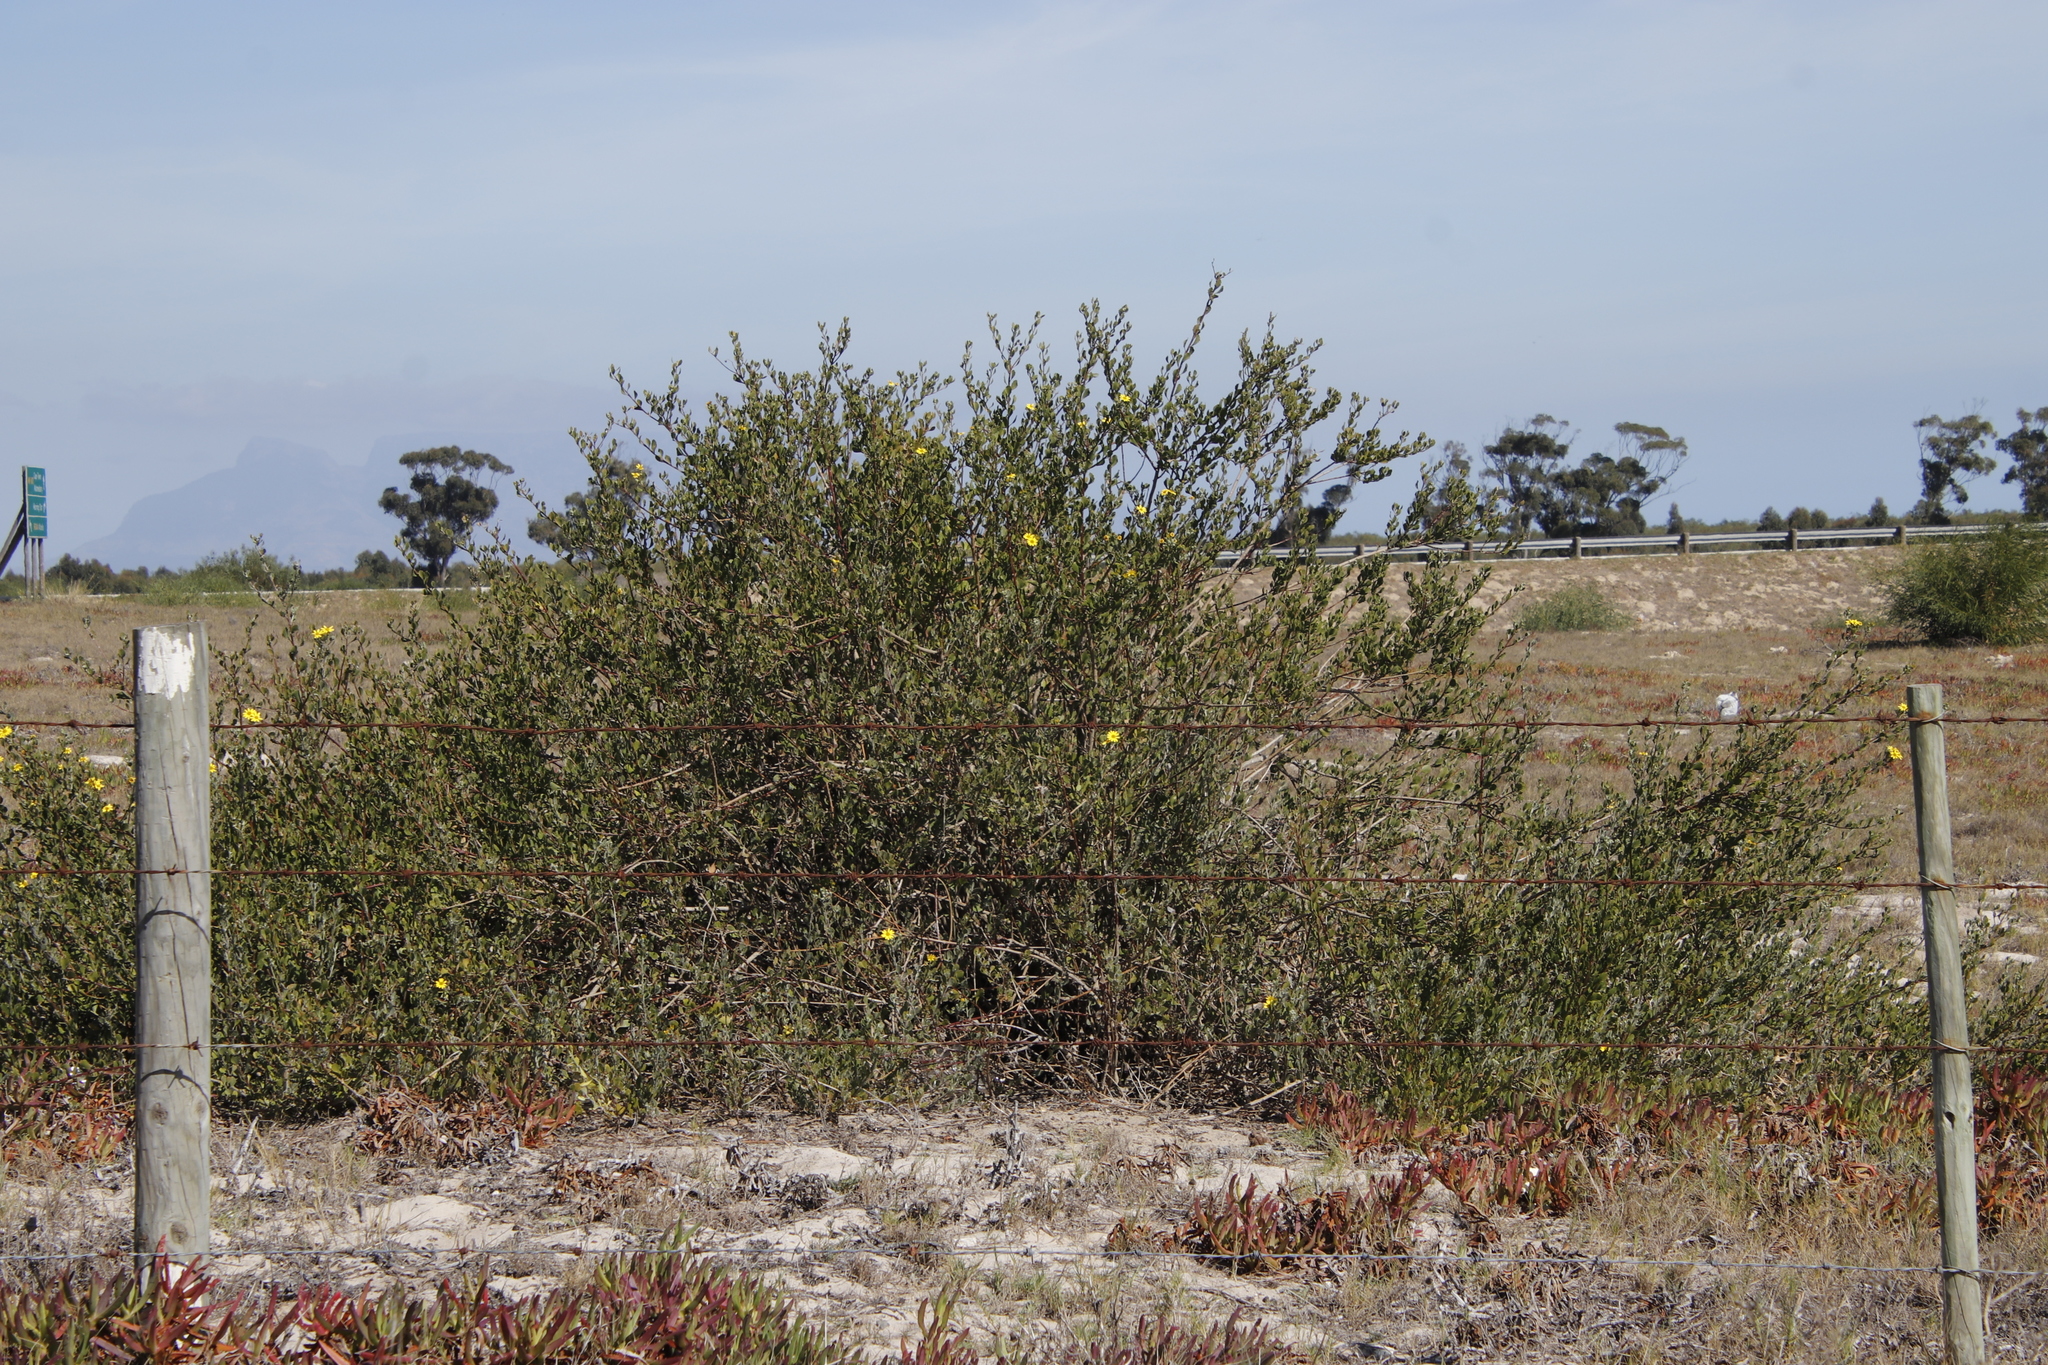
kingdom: Plantae
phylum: Tracheophyta
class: Magnoliopsida
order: Asterales
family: Asteraceae
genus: Osteospermum
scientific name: Osteospermum moniliferum
